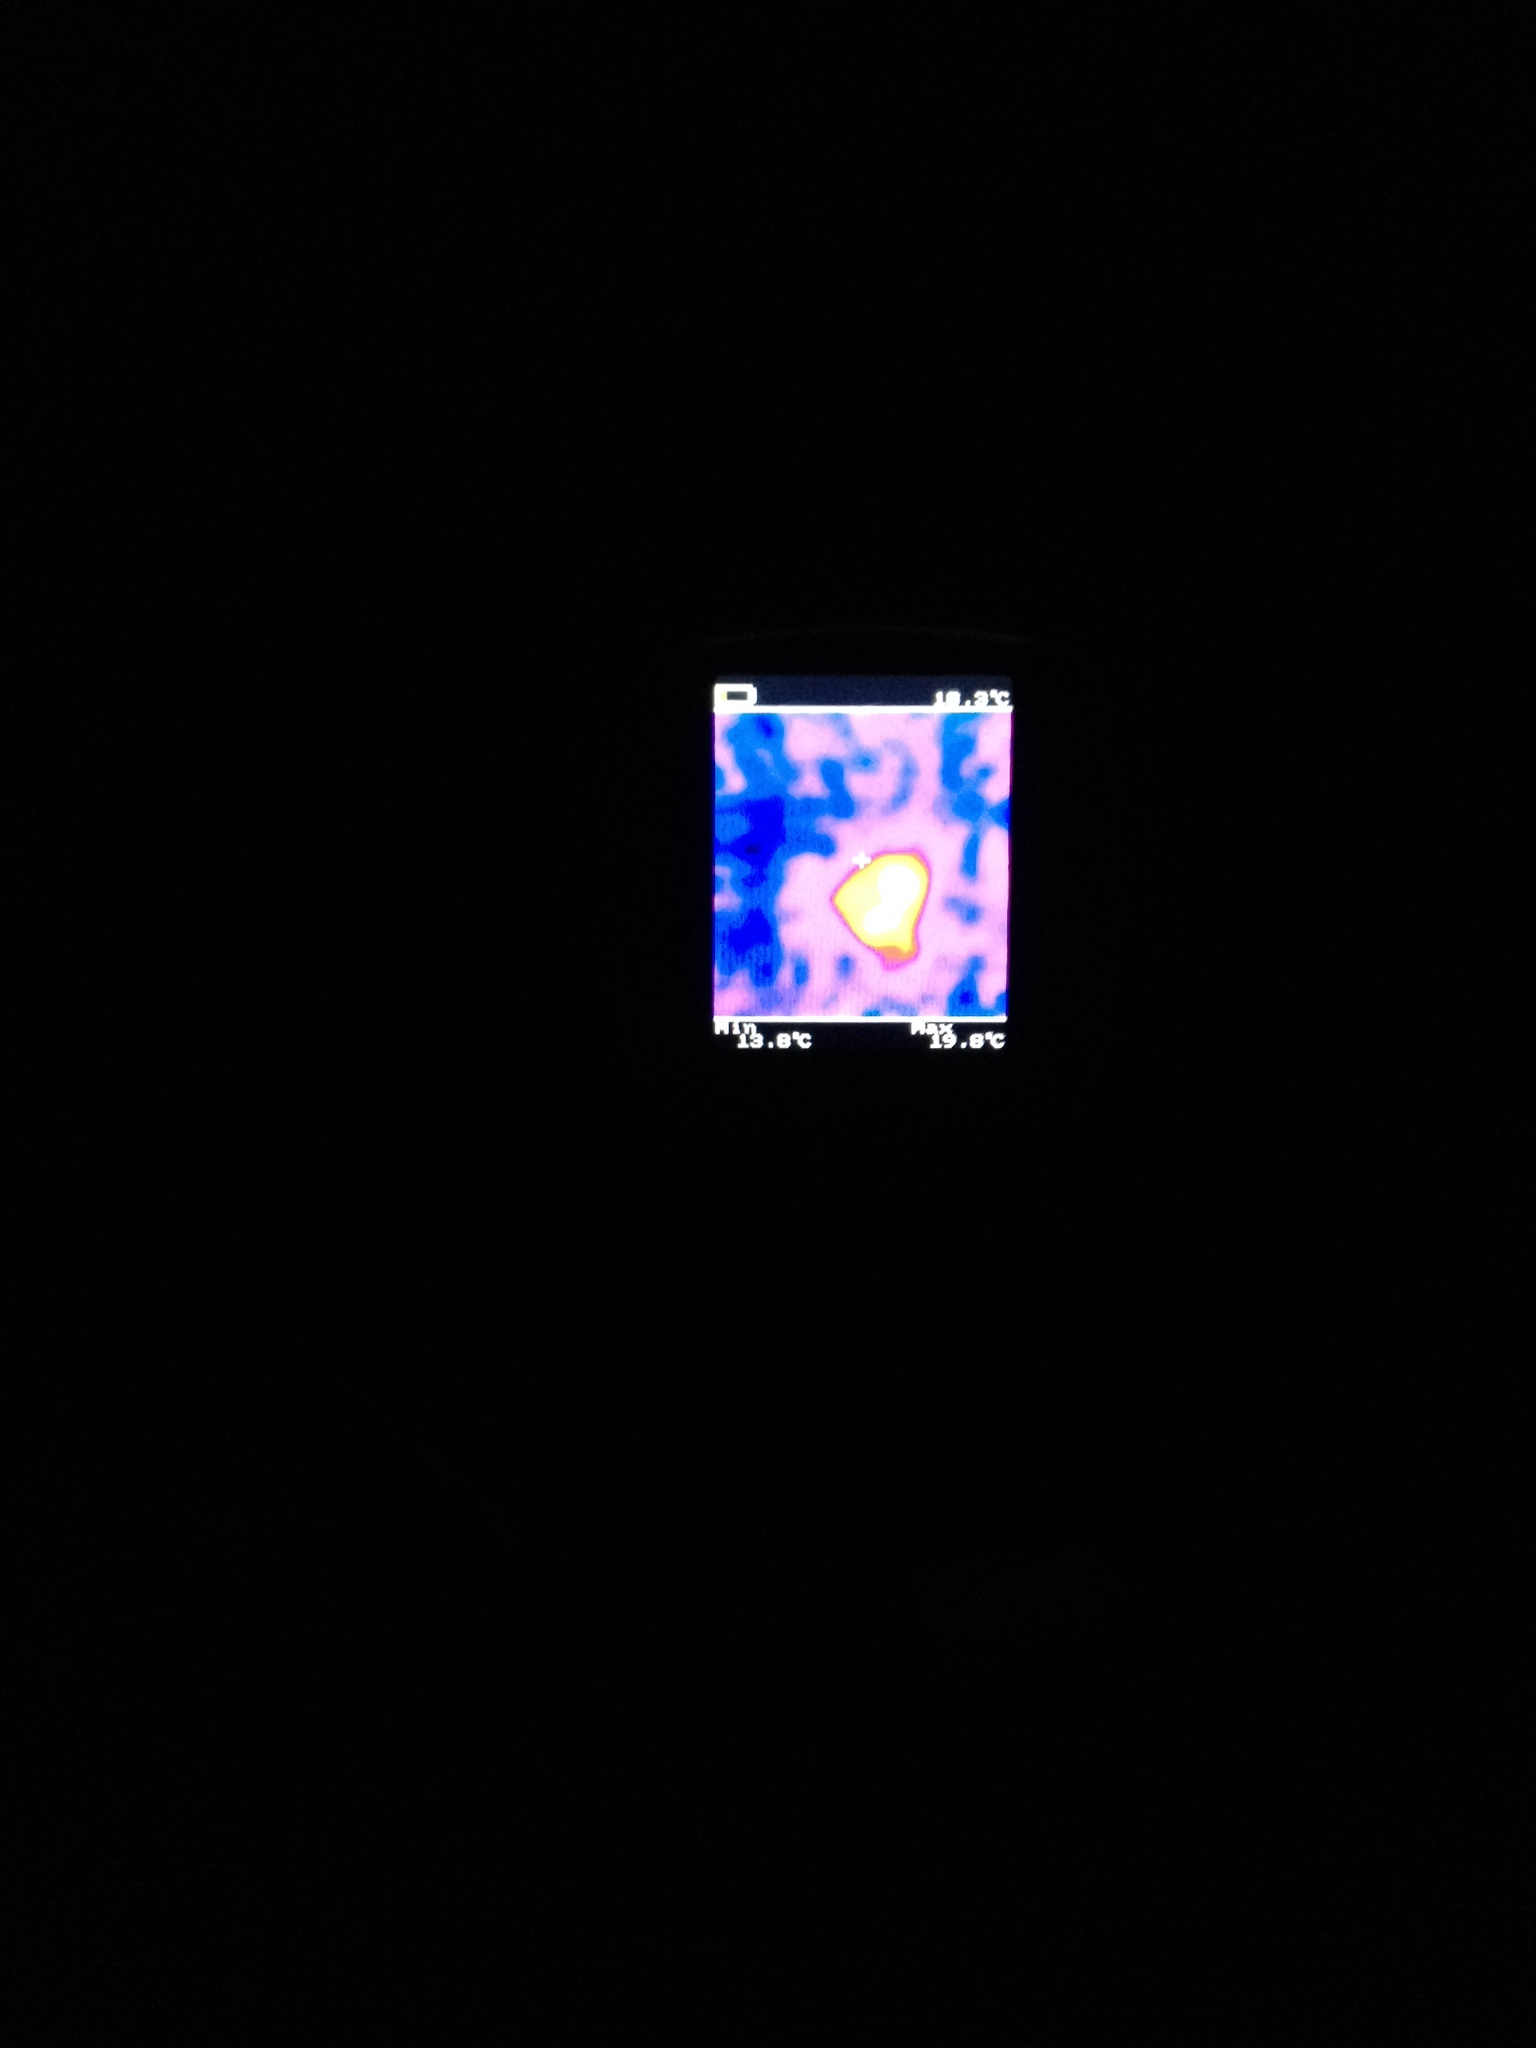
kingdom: Animalia
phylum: Chordata
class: Mammalia
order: Didelphimorphia
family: Didelphidae
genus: Didelphis
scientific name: Didelphis virginiana
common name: Virginia opossum
